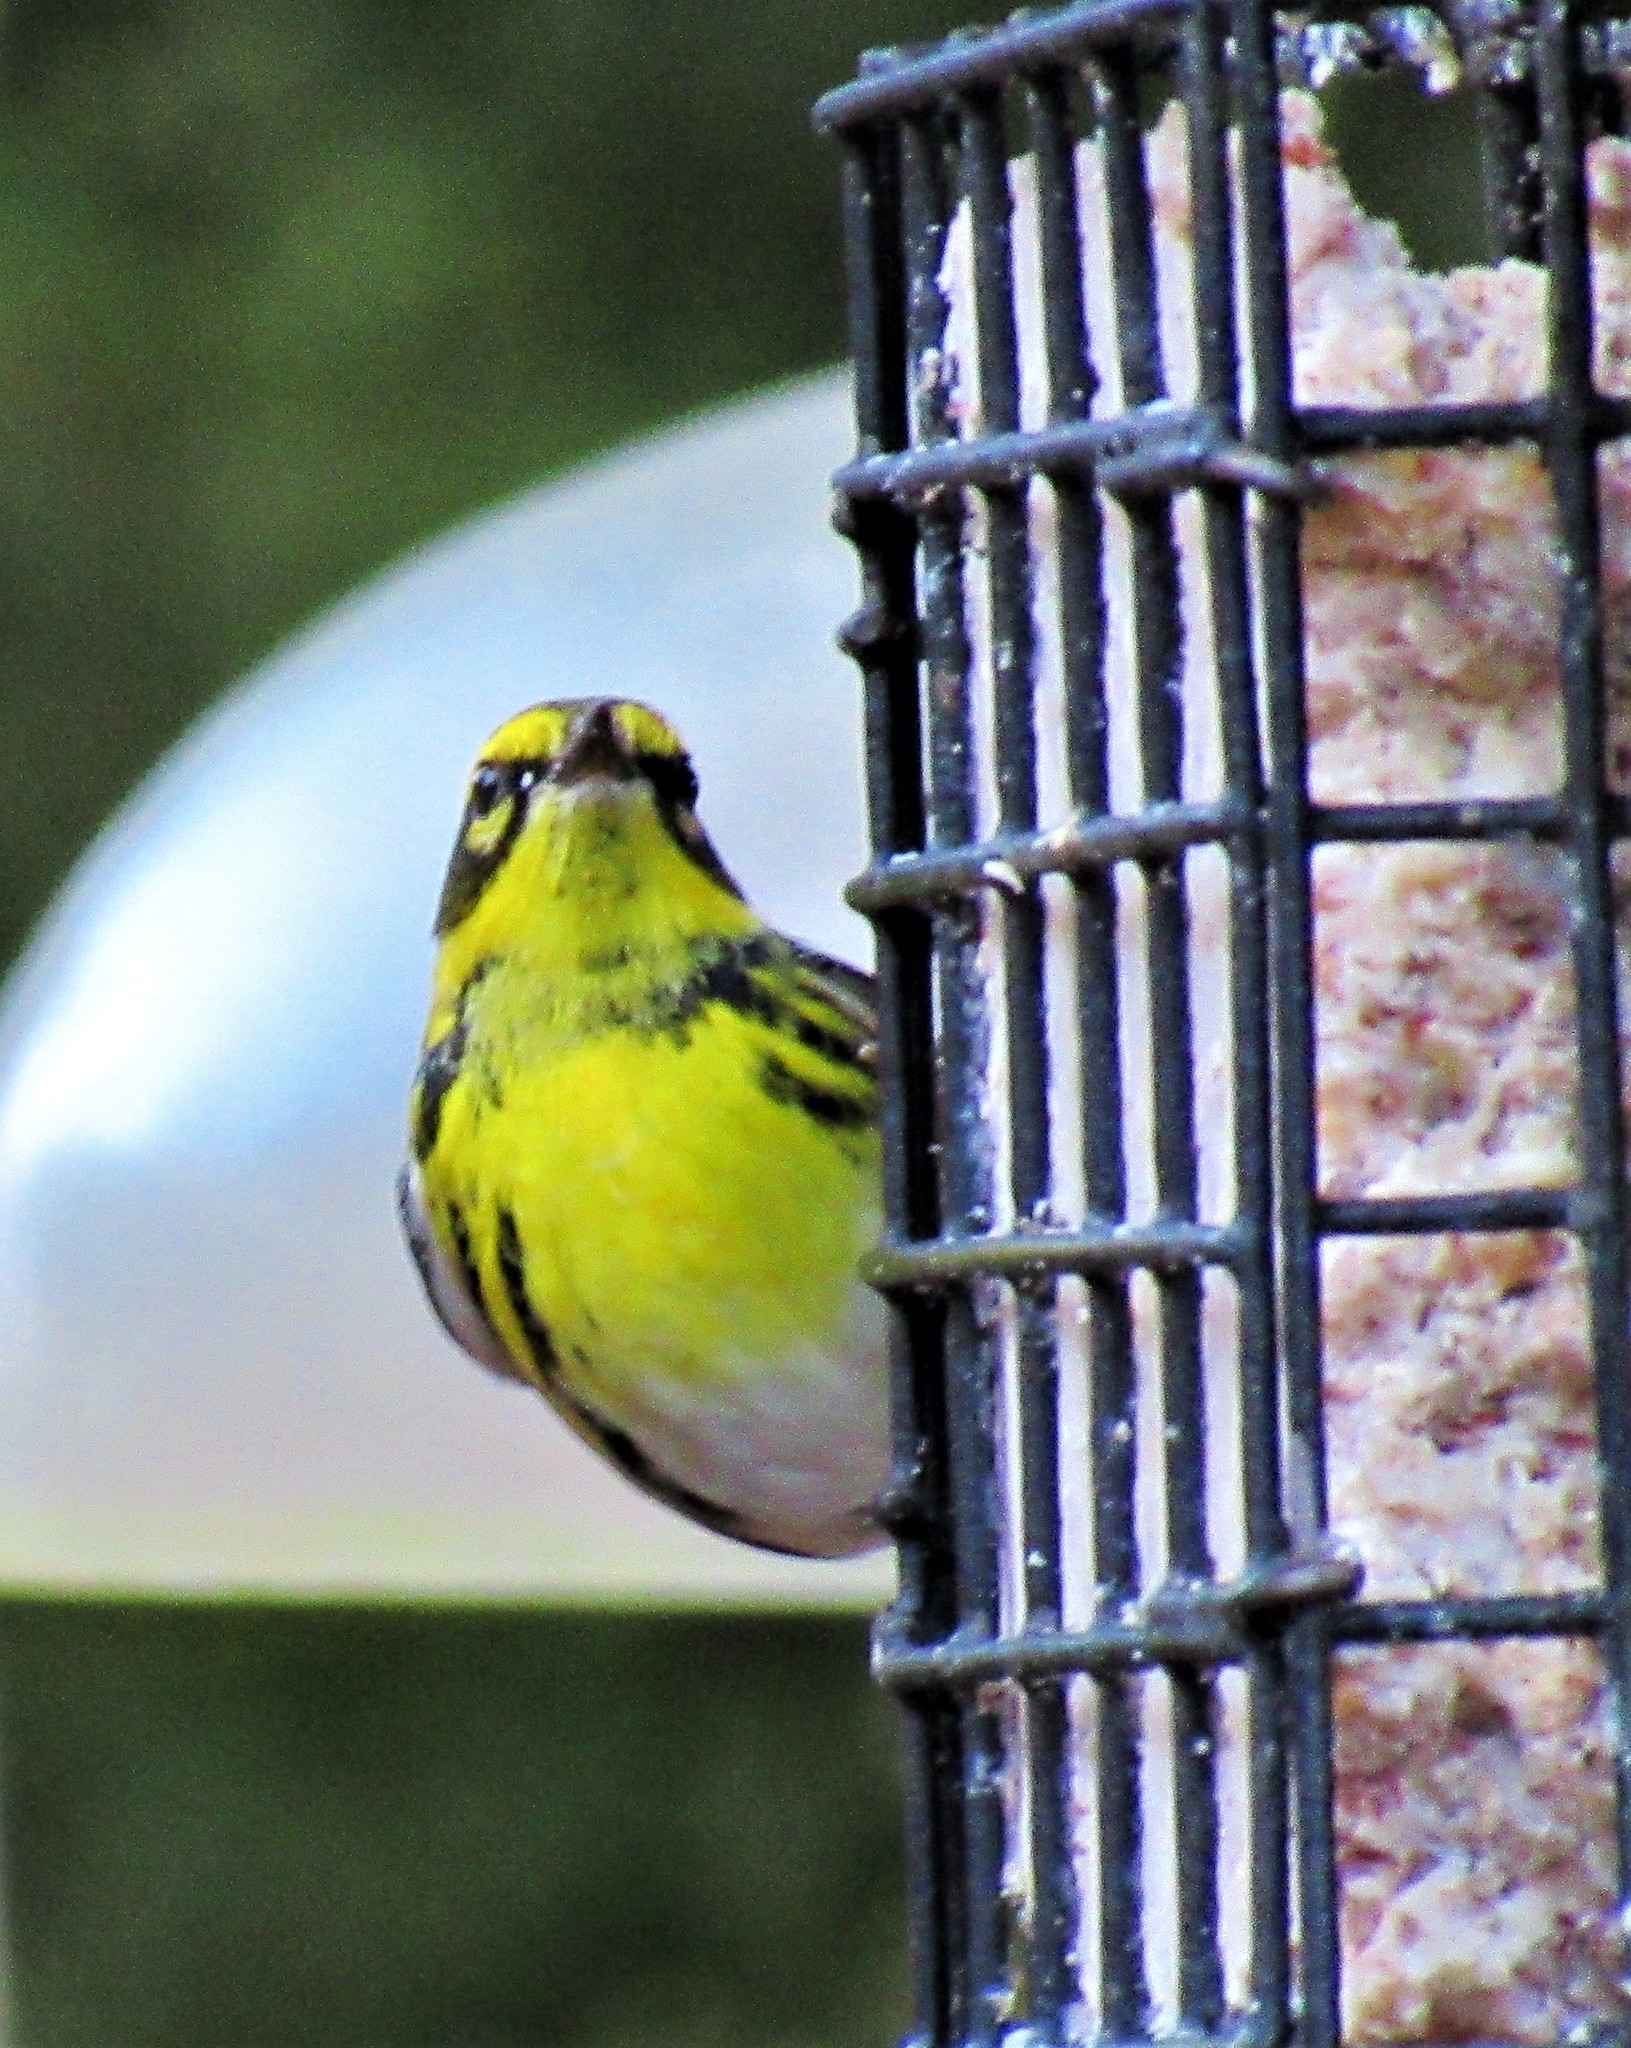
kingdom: Animalia
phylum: Chordata
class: Aves
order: Passeriformes
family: Parulidae
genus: Setophaga
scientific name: Setophaga townsendi
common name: Townsend's warbler
